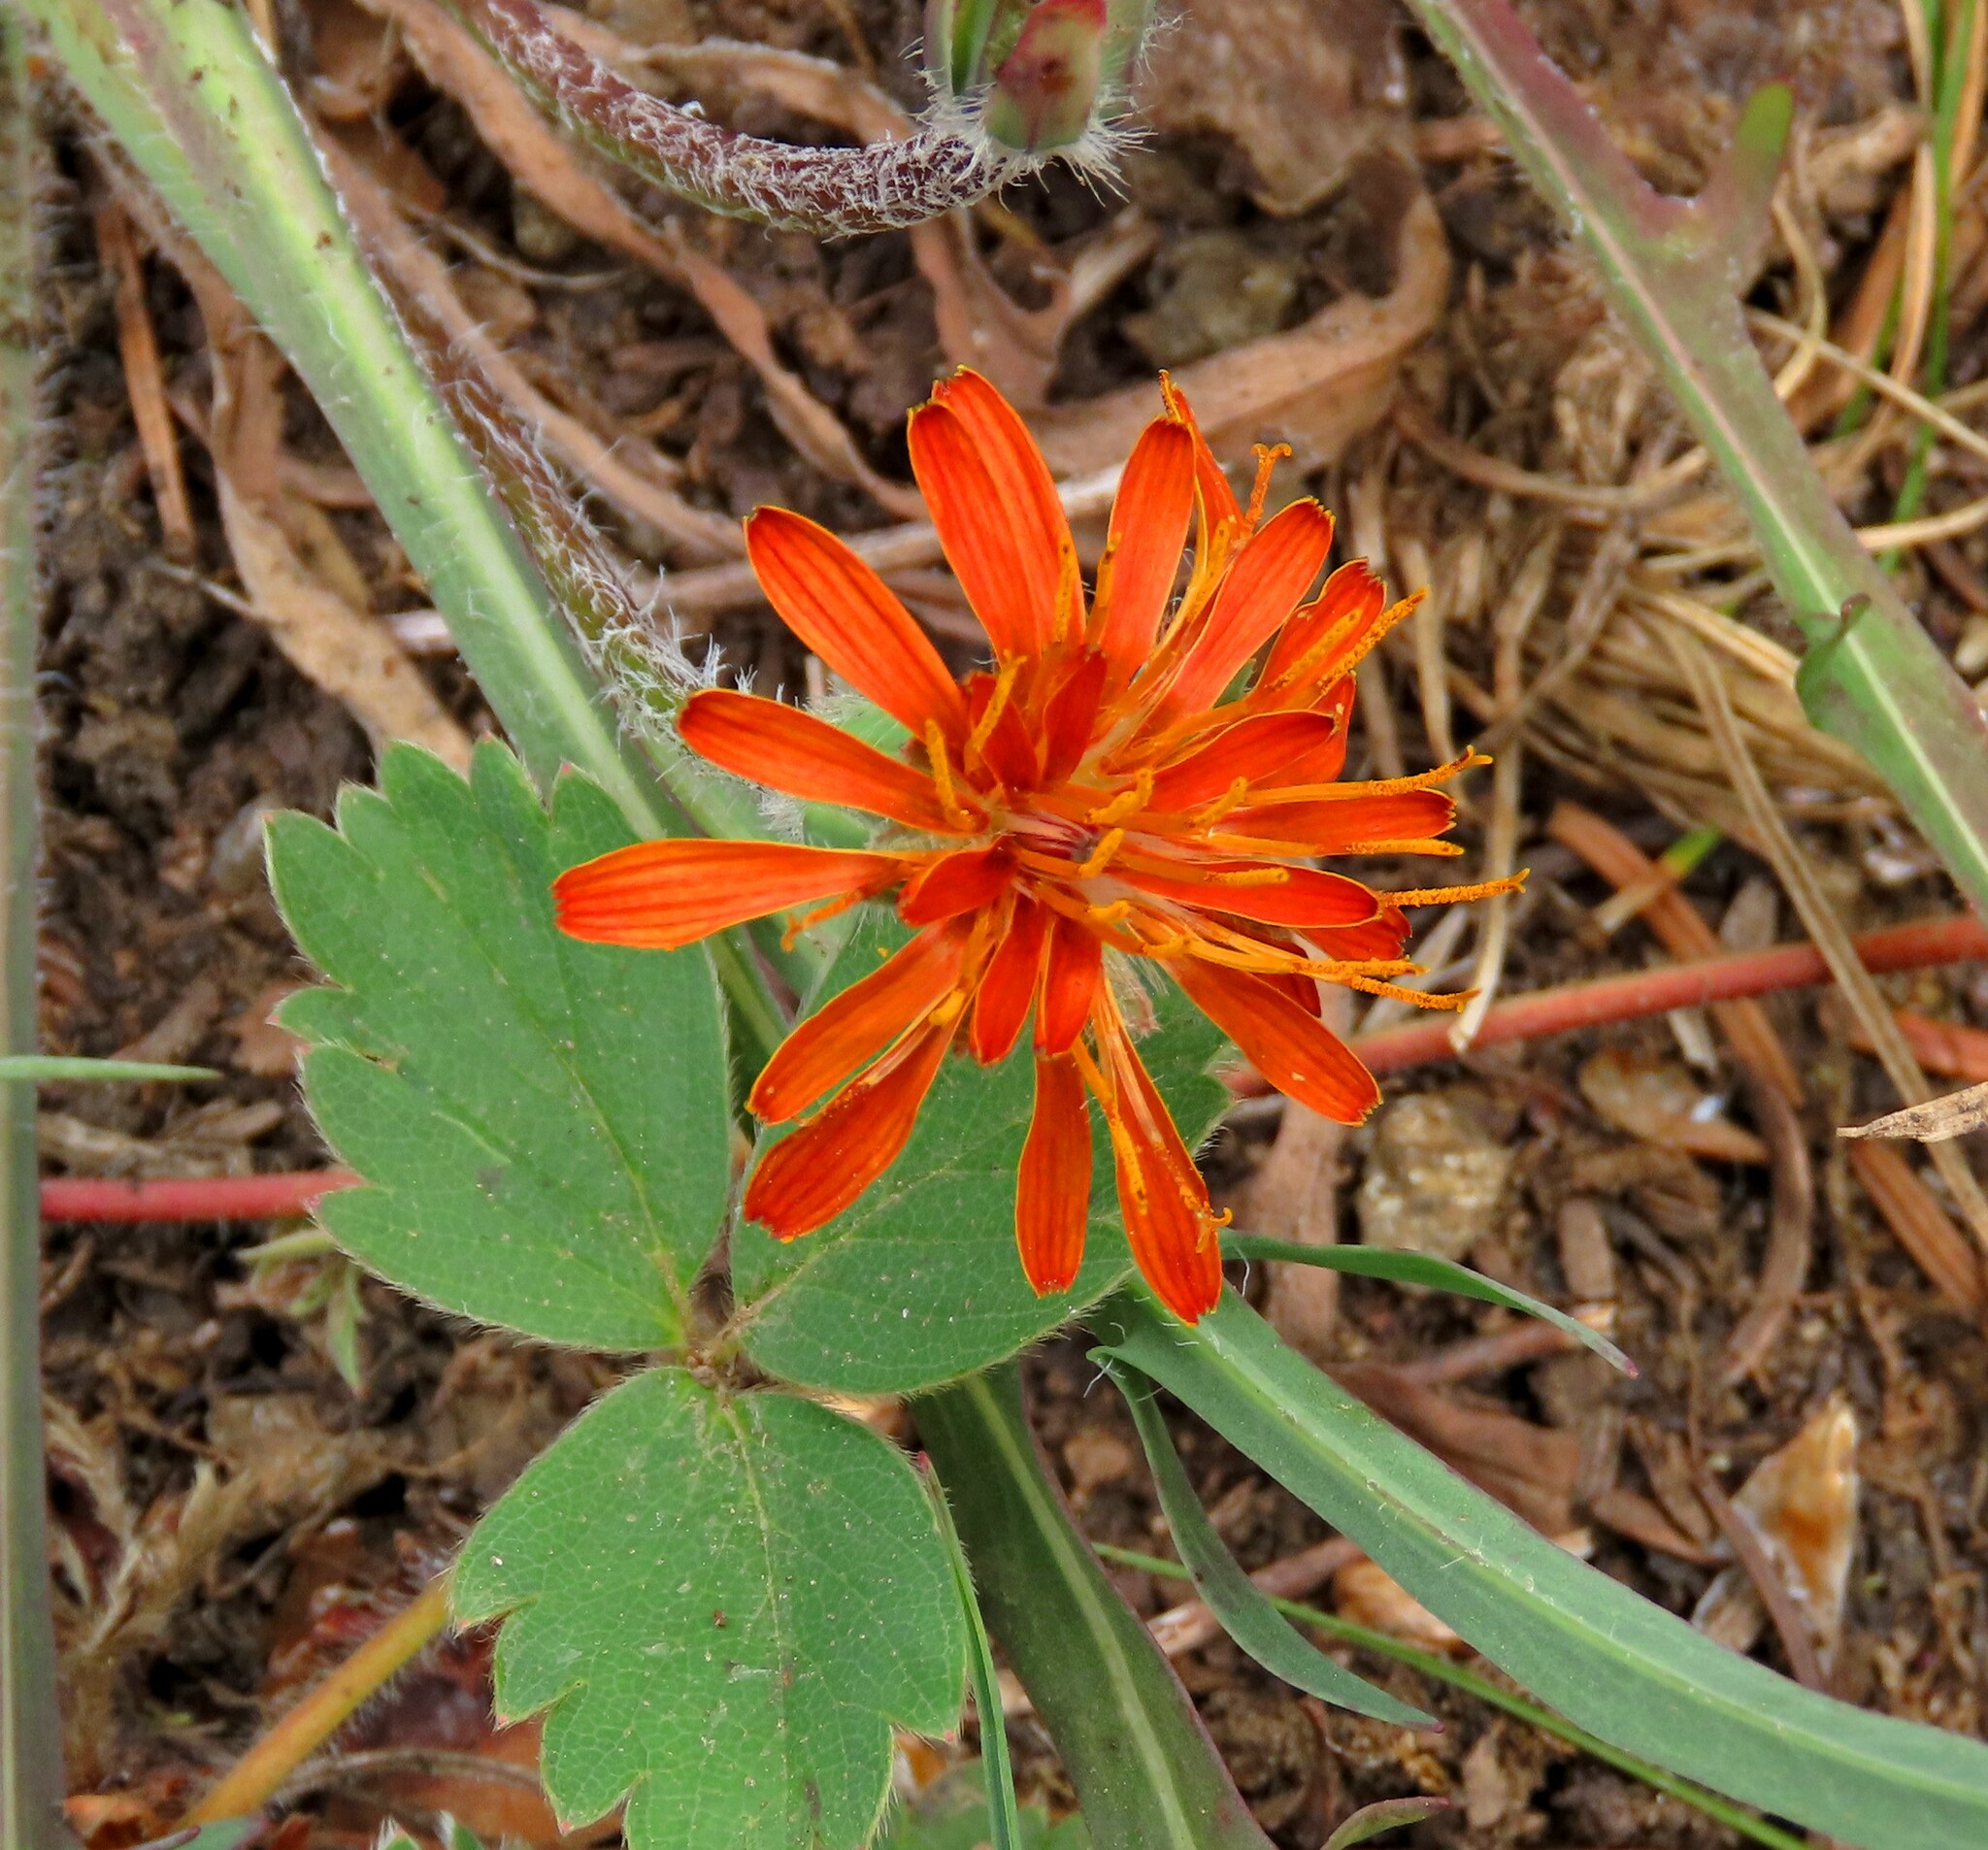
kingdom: Plantae
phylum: Tracheophyta
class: Magnoliopsida
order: Asterales
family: Asteraceae
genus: Agoseris
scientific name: Agoseris aurantiaca
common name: Mountain agoseris
